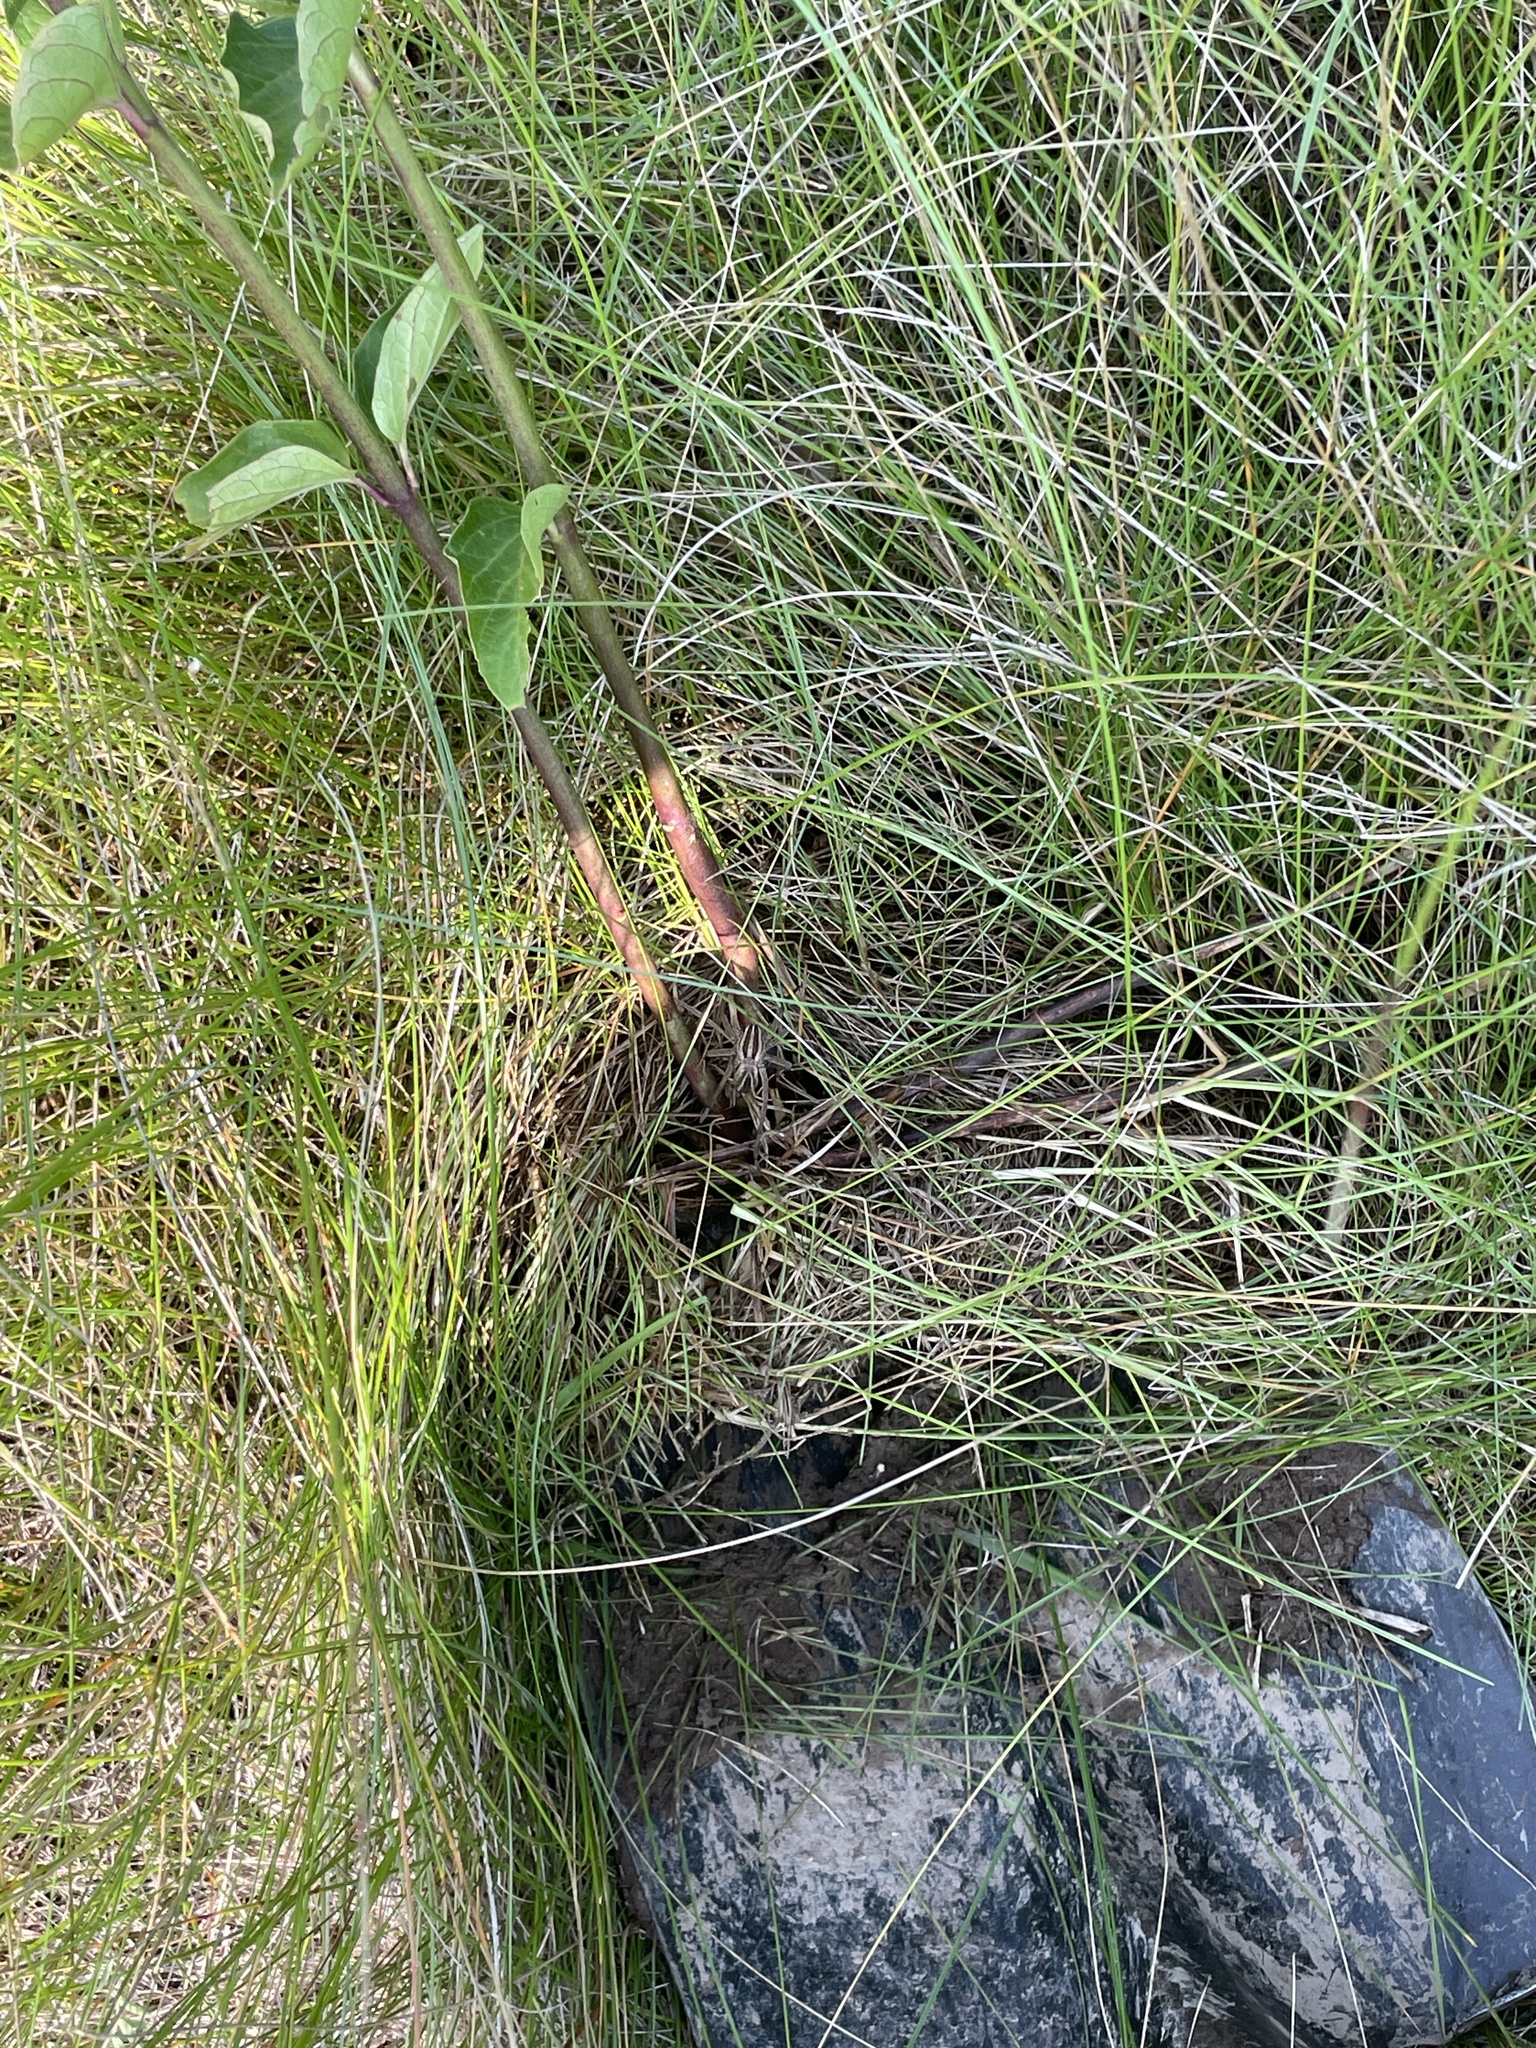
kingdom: Animalia
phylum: Arthropoda
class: Arachnida
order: Araneae
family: Lycosidae
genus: Rabidosa
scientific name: Rabidosa rabida
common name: Rabid wolf spider
